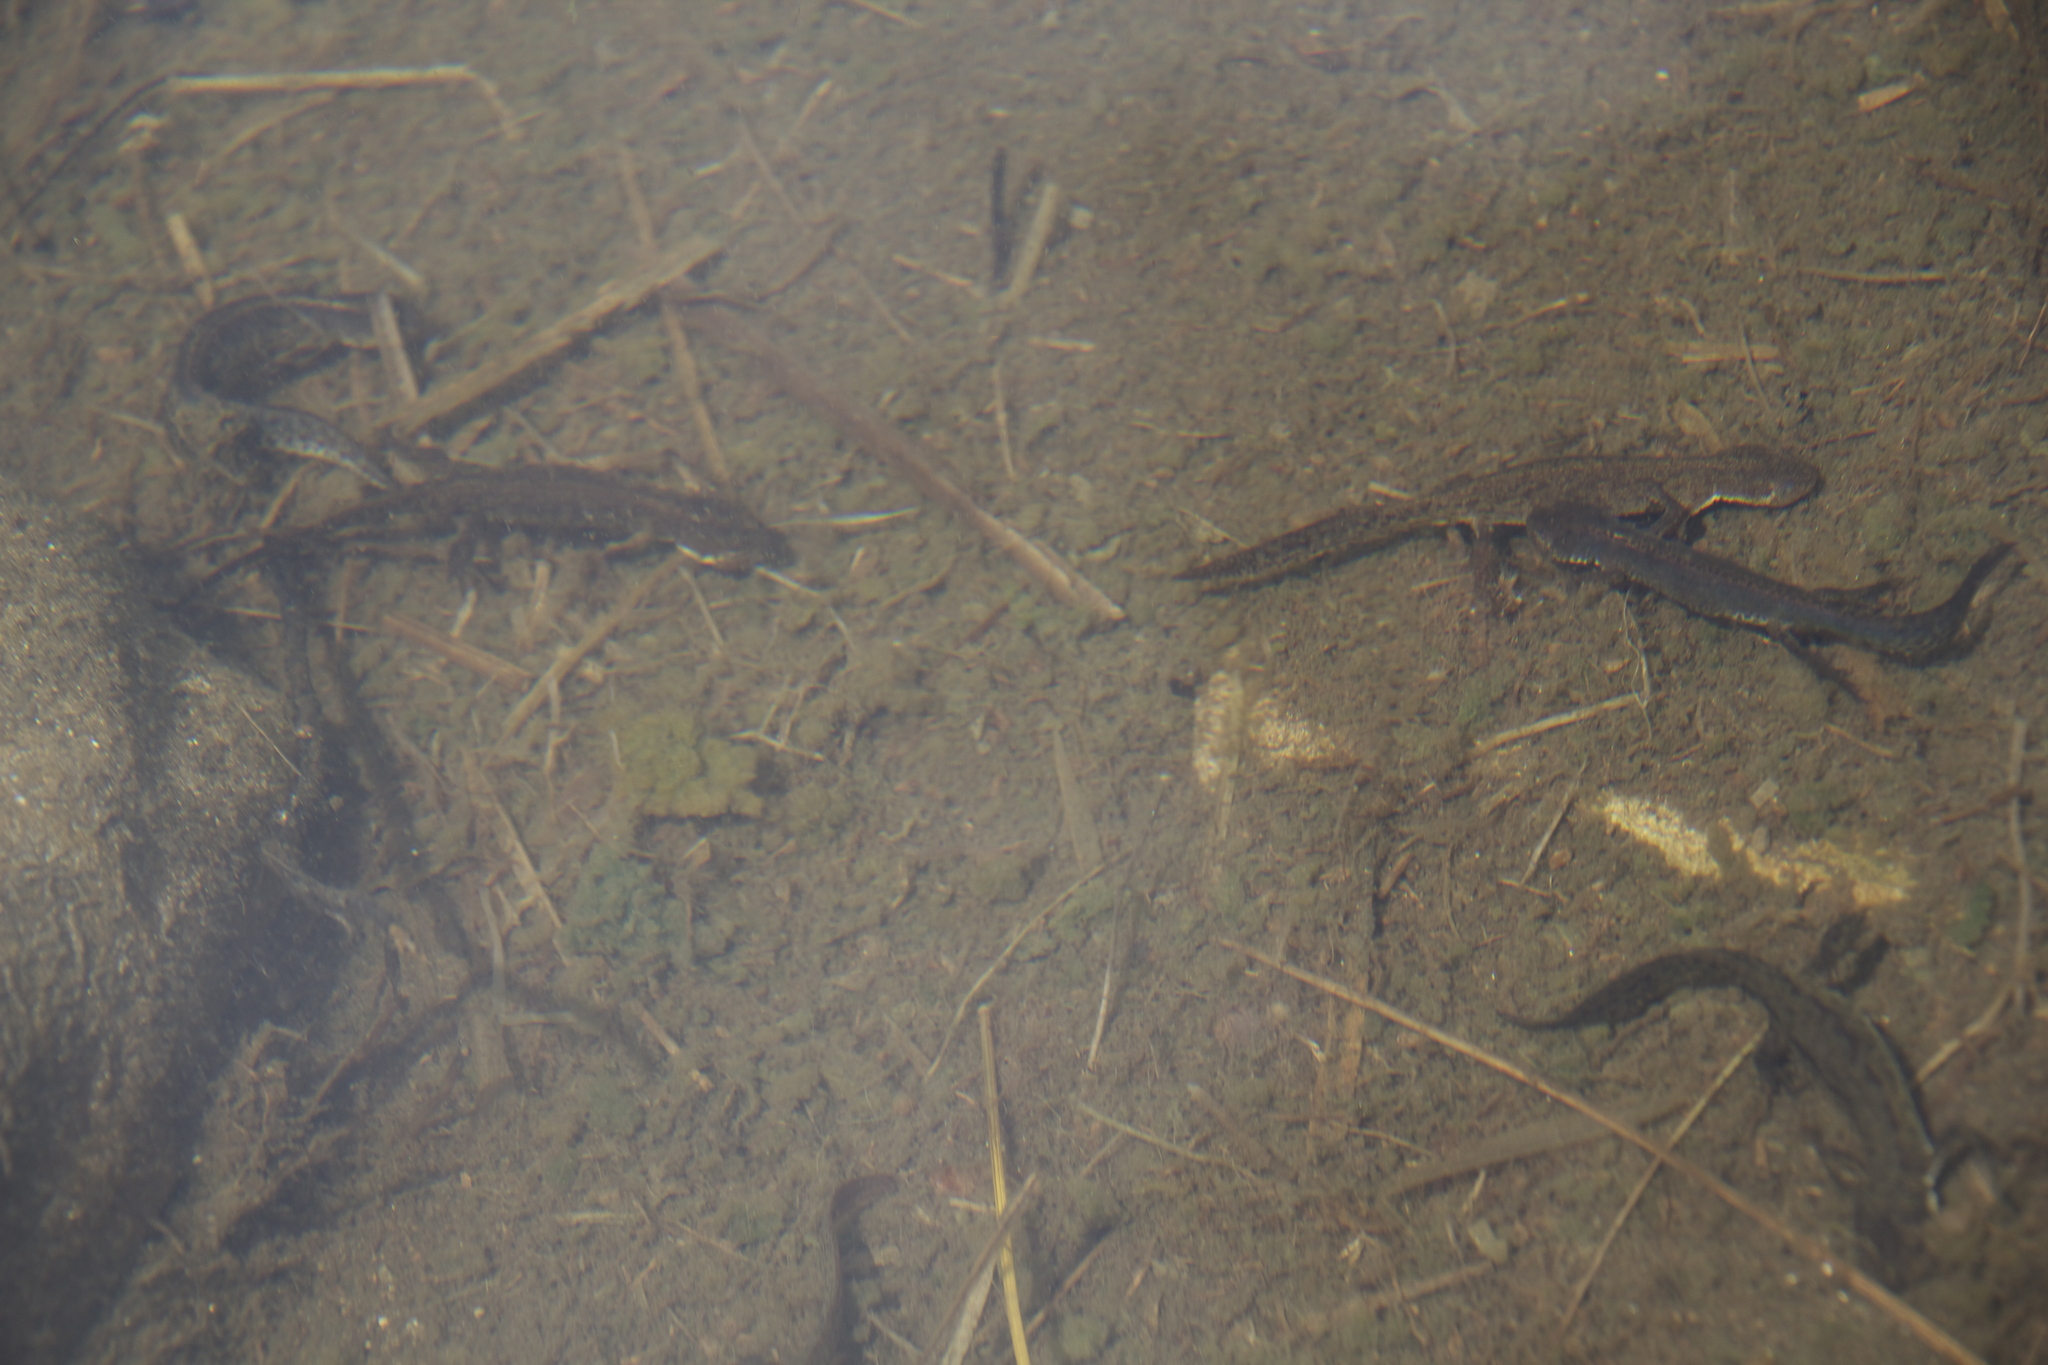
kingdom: Animalia
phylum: Chordata
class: Amphibia
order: Caudata
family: Salamandridae
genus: Ichthyosaura
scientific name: Ichthyosaura alpestris
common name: Alpine newt
